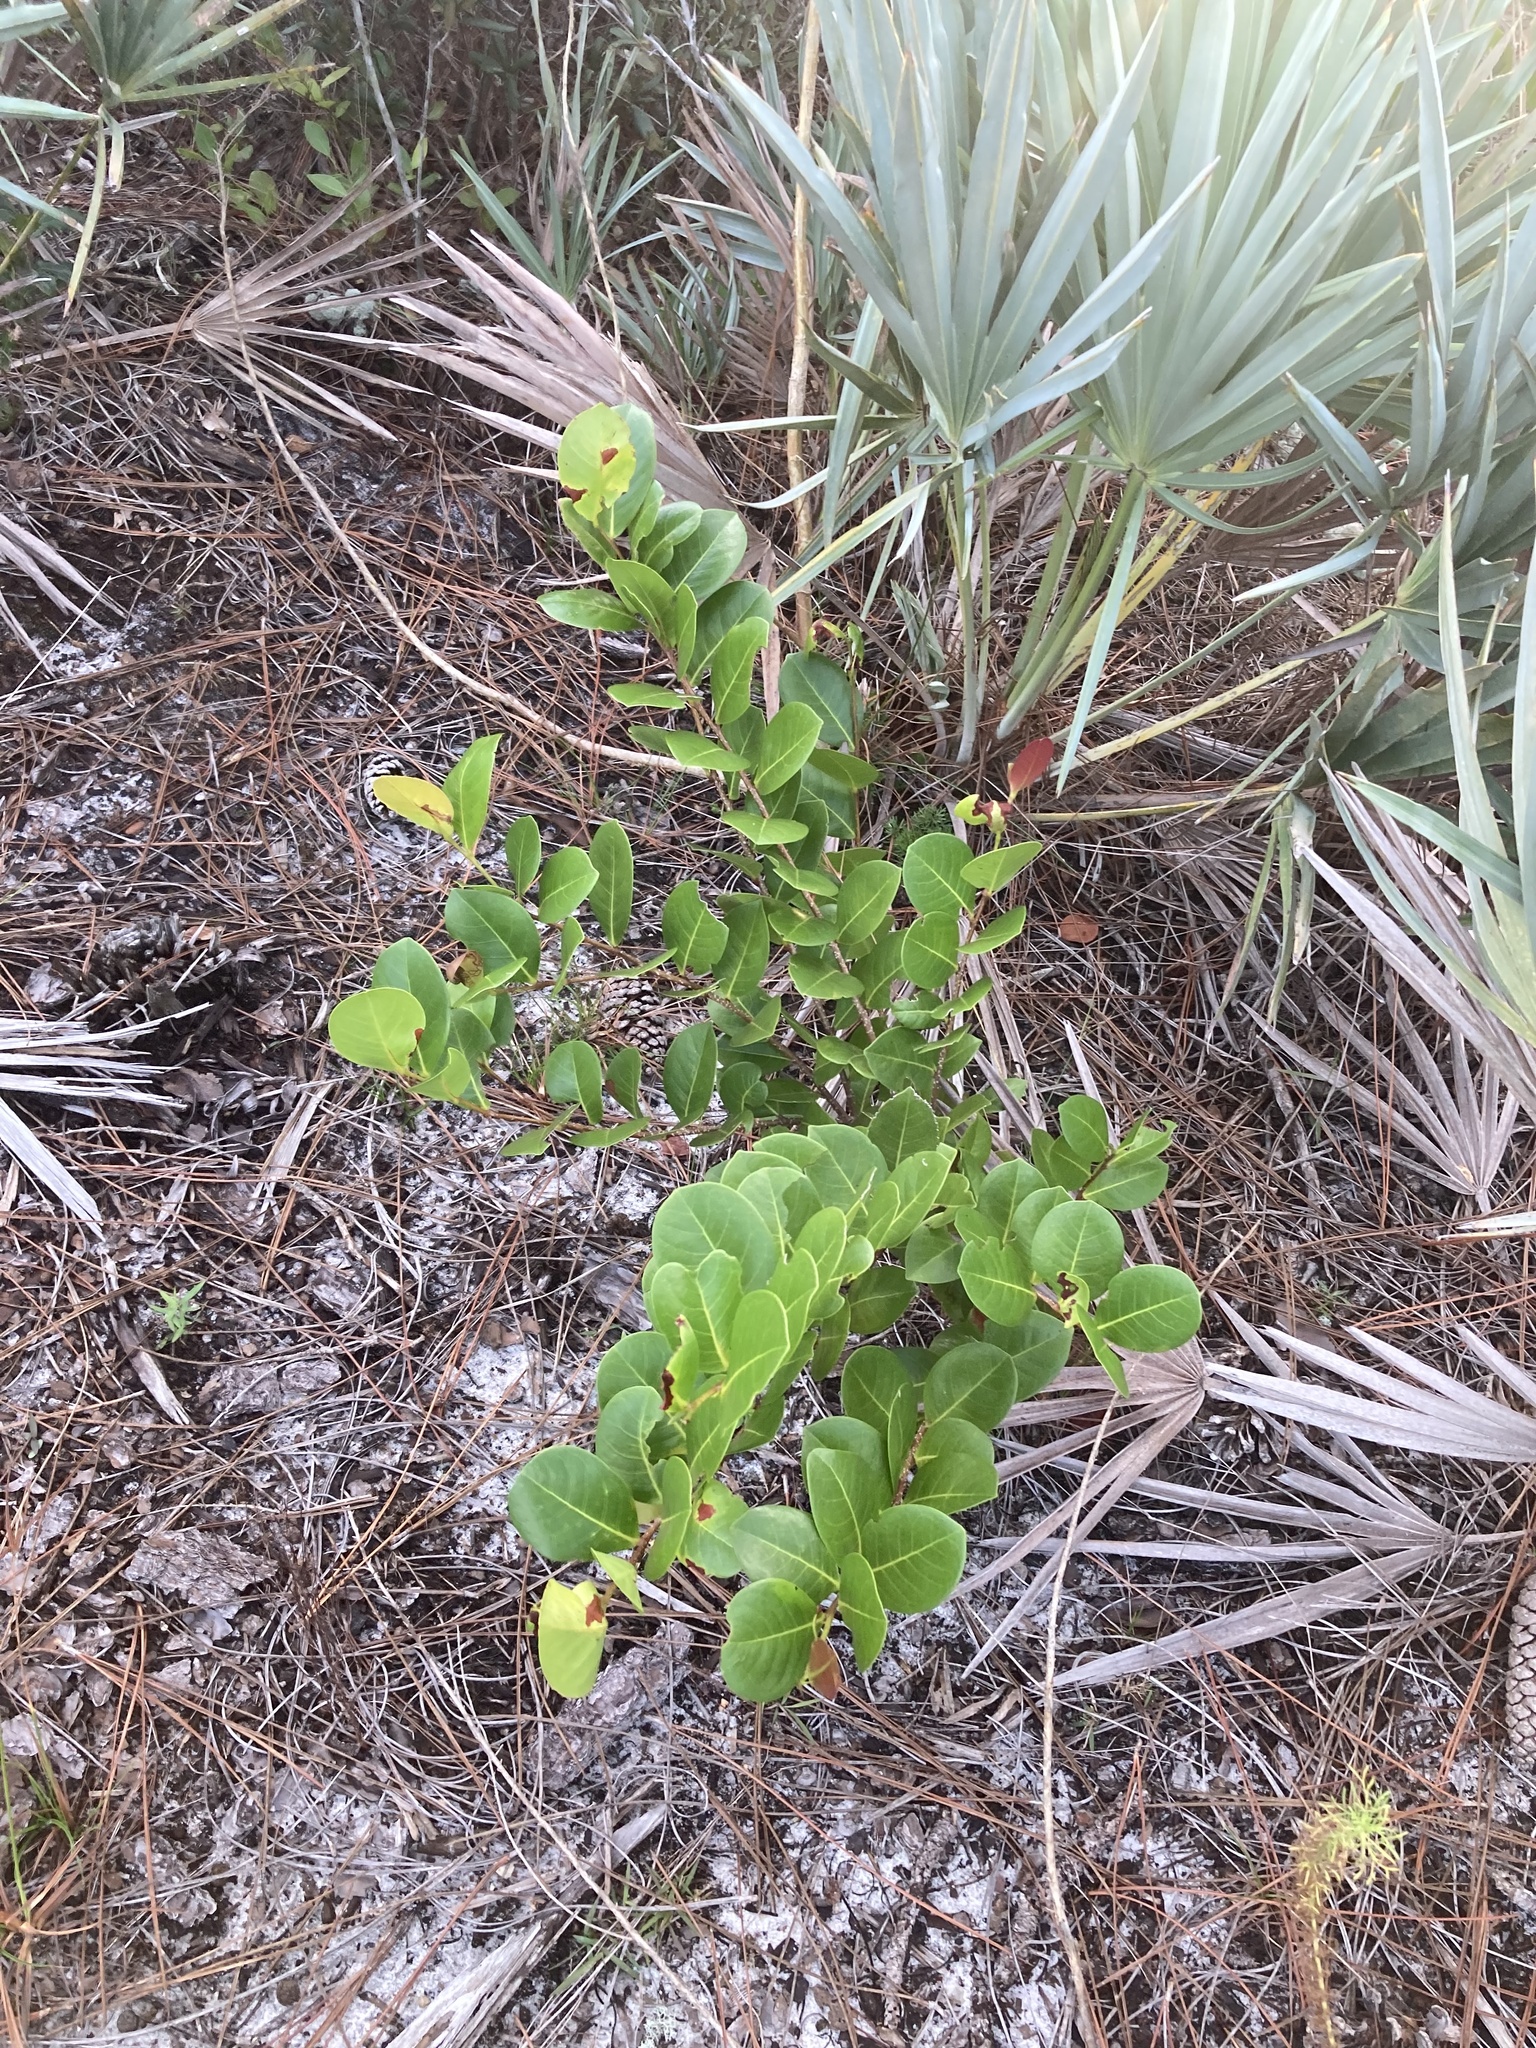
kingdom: Plantae
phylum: Tracheophyta
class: Magnoliopsida
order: Malpighiales
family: Chrysobalanaceae
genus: Chrysobalanus
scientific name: Chrysobalanus icaco
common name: Coco plum
